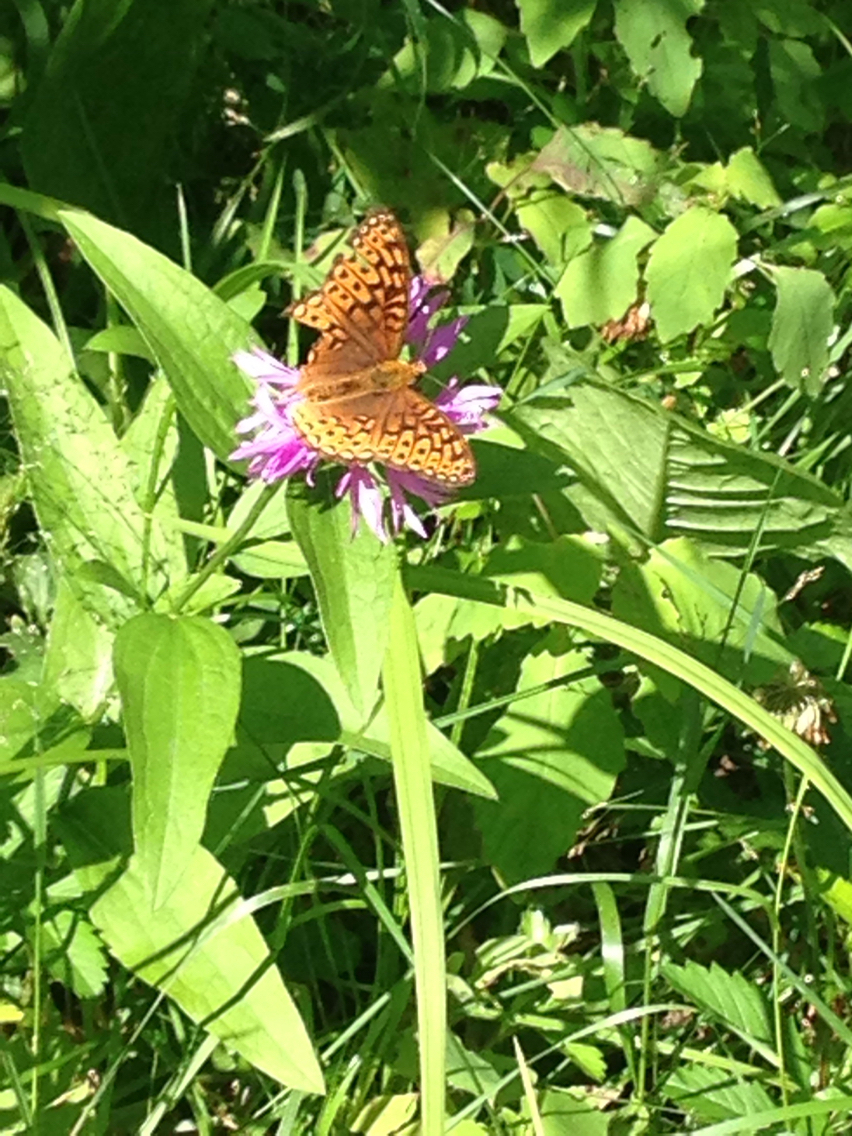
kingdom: Animalia
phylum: Arthropoda
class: Insecta
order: Lepidoptera
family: Nymphalidae
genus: Speyeria
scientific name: Speyeria atlantis
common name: Atlantis fritillary
